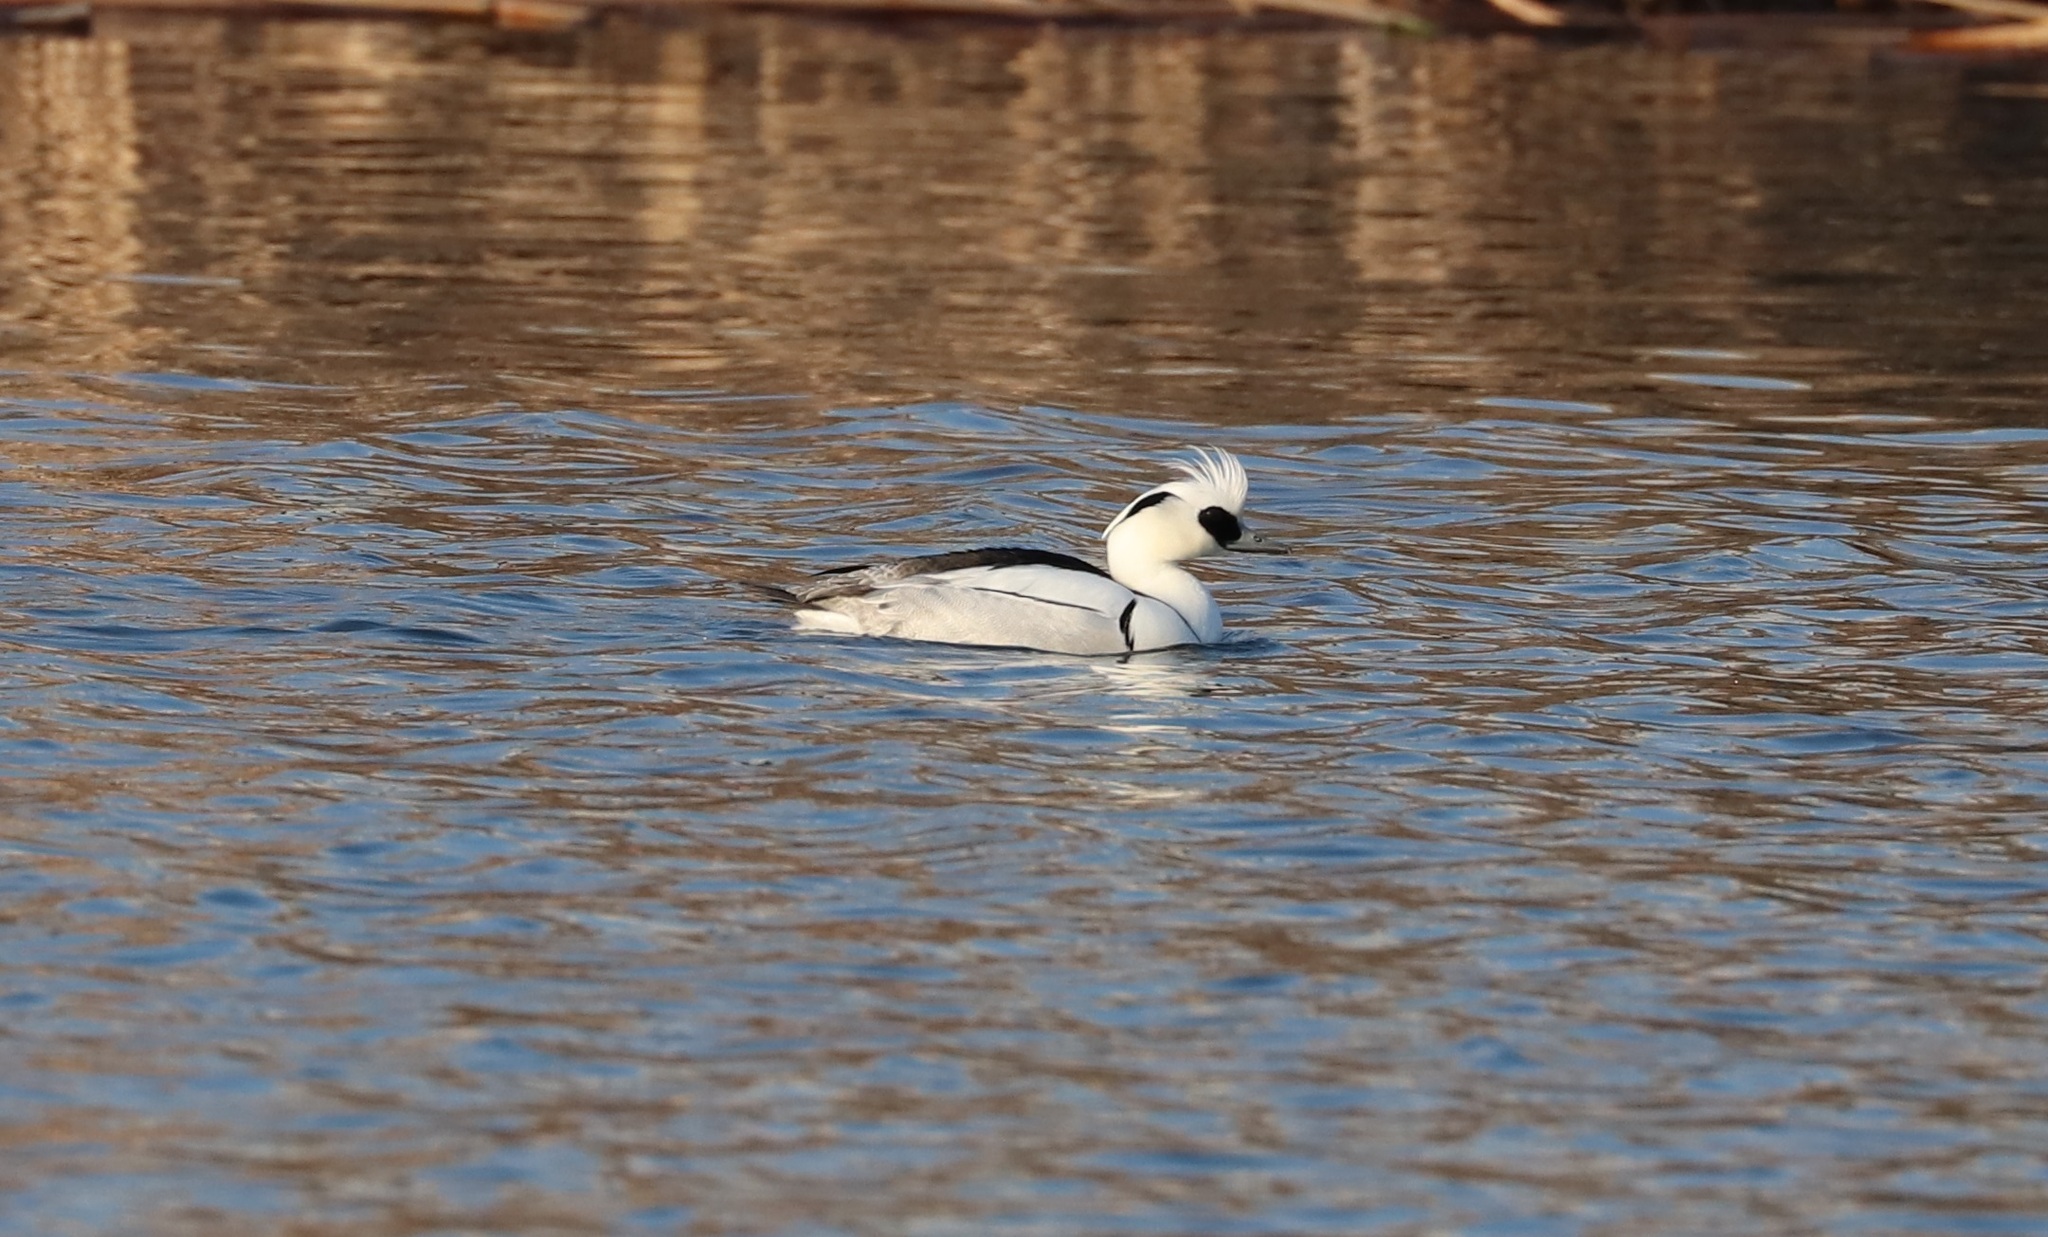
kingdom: Animalia
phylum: Chordata
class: Aves
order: Anseriformes
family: Anatidae
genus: Mergellus
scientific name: Mergellus albellus
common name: Smew
